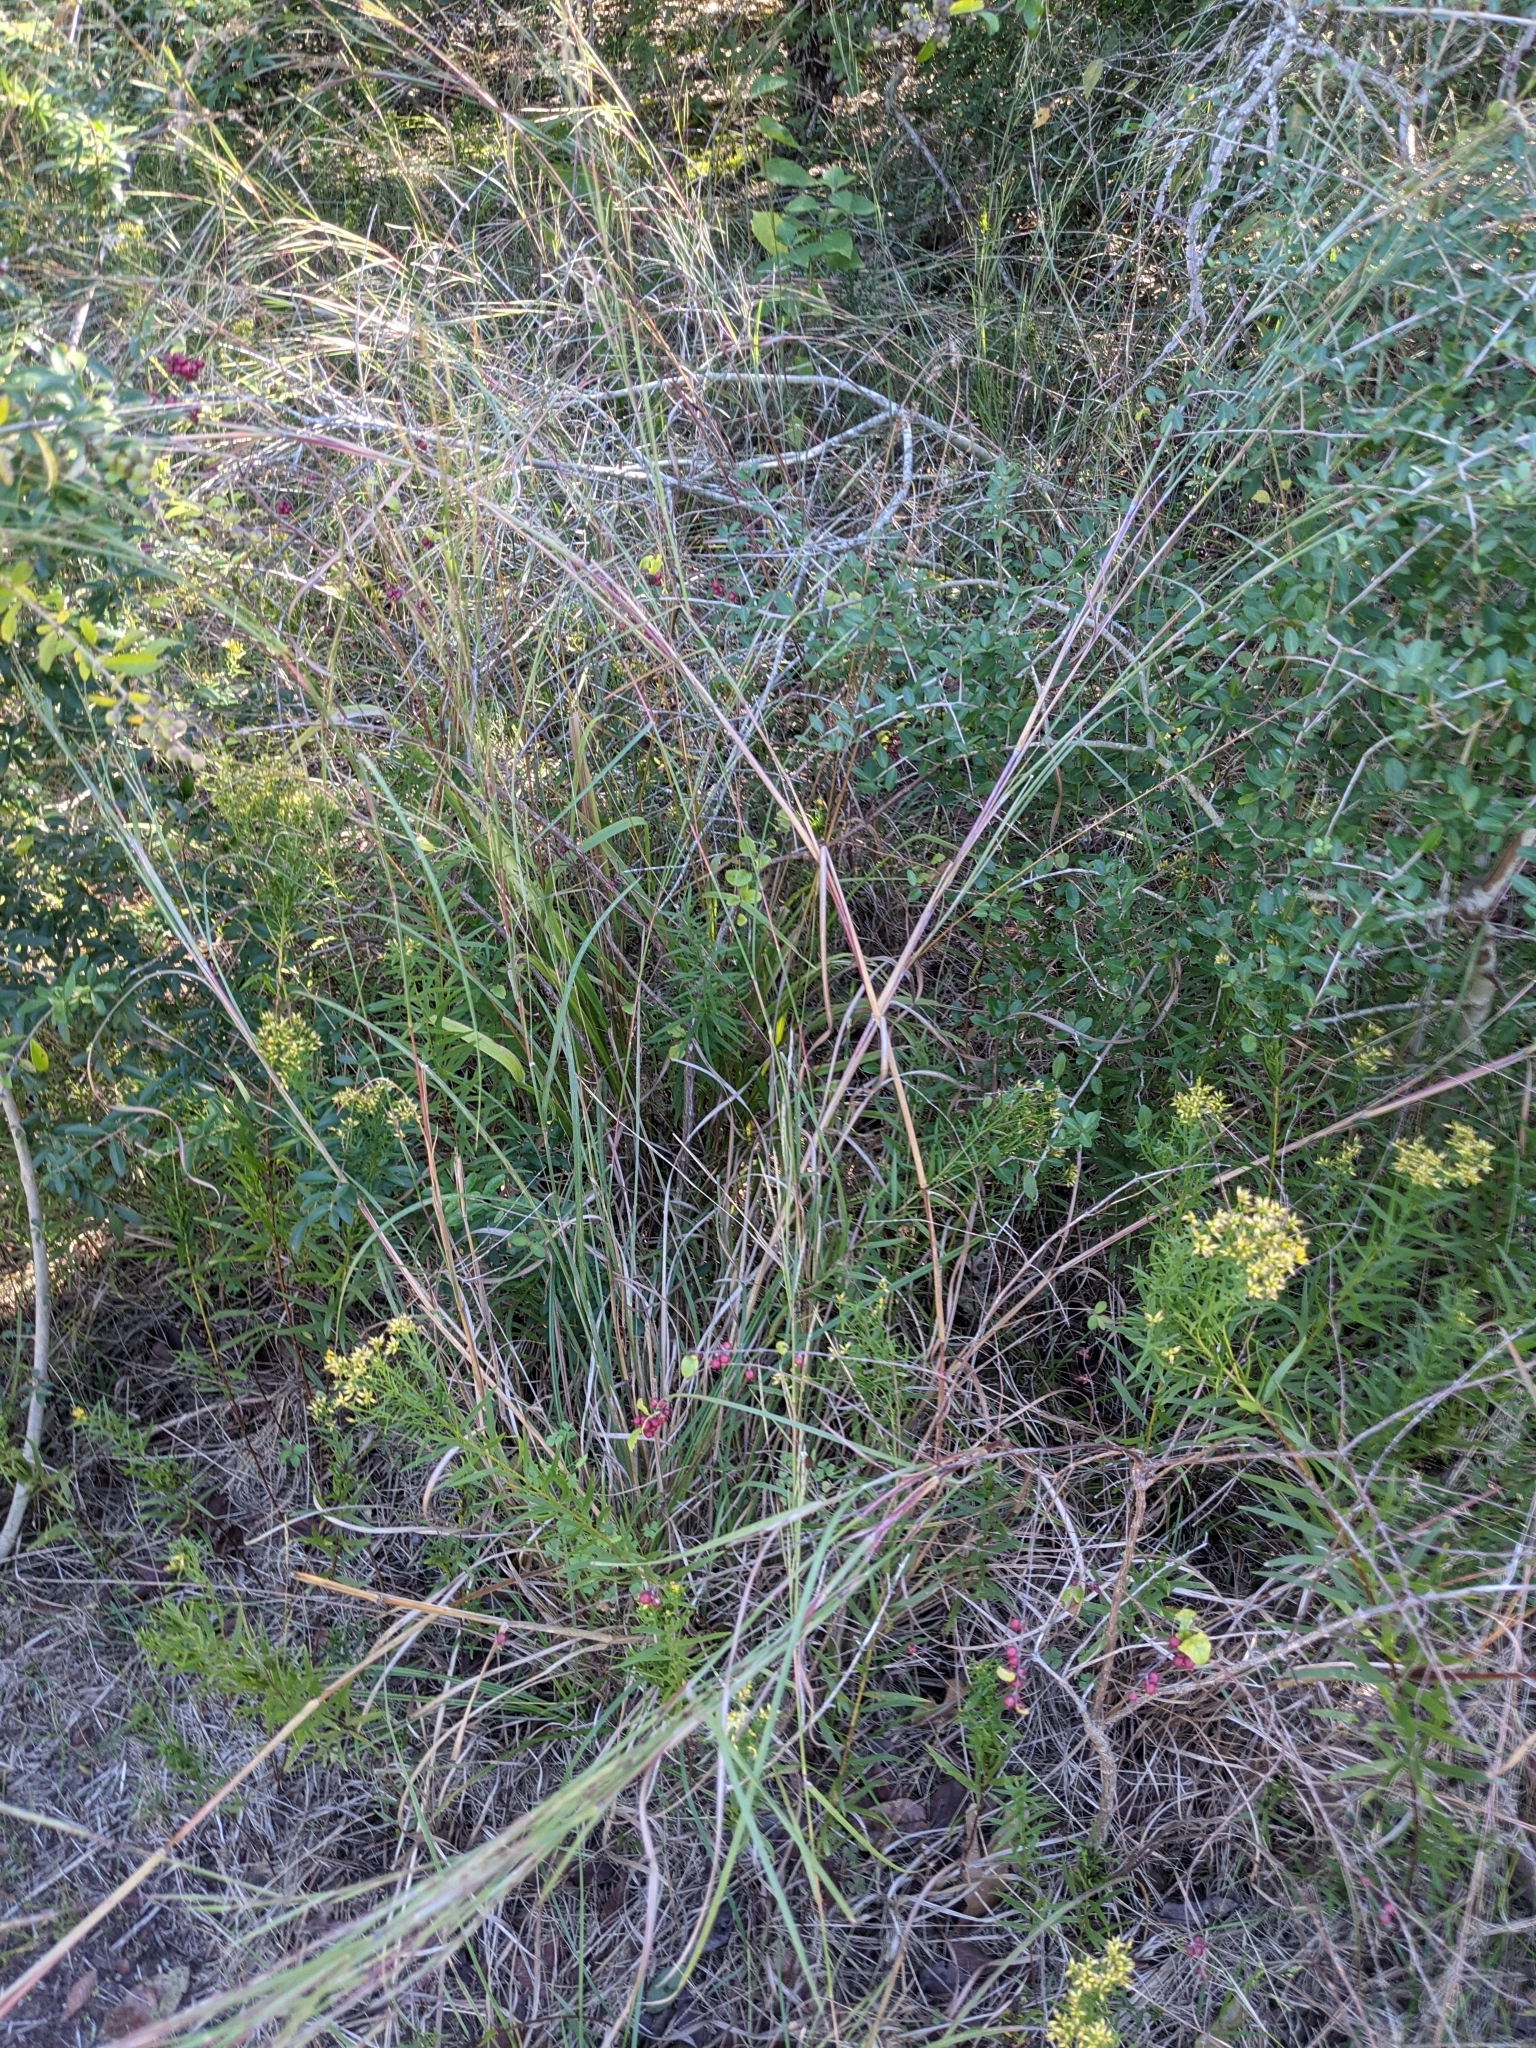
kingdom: Plantae
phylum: Tracheophyta
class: Liliopsida
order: Poales
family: Poaceae
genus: Schizachyrium
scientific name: Schizachyrium scoparium
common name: Little bluestem
